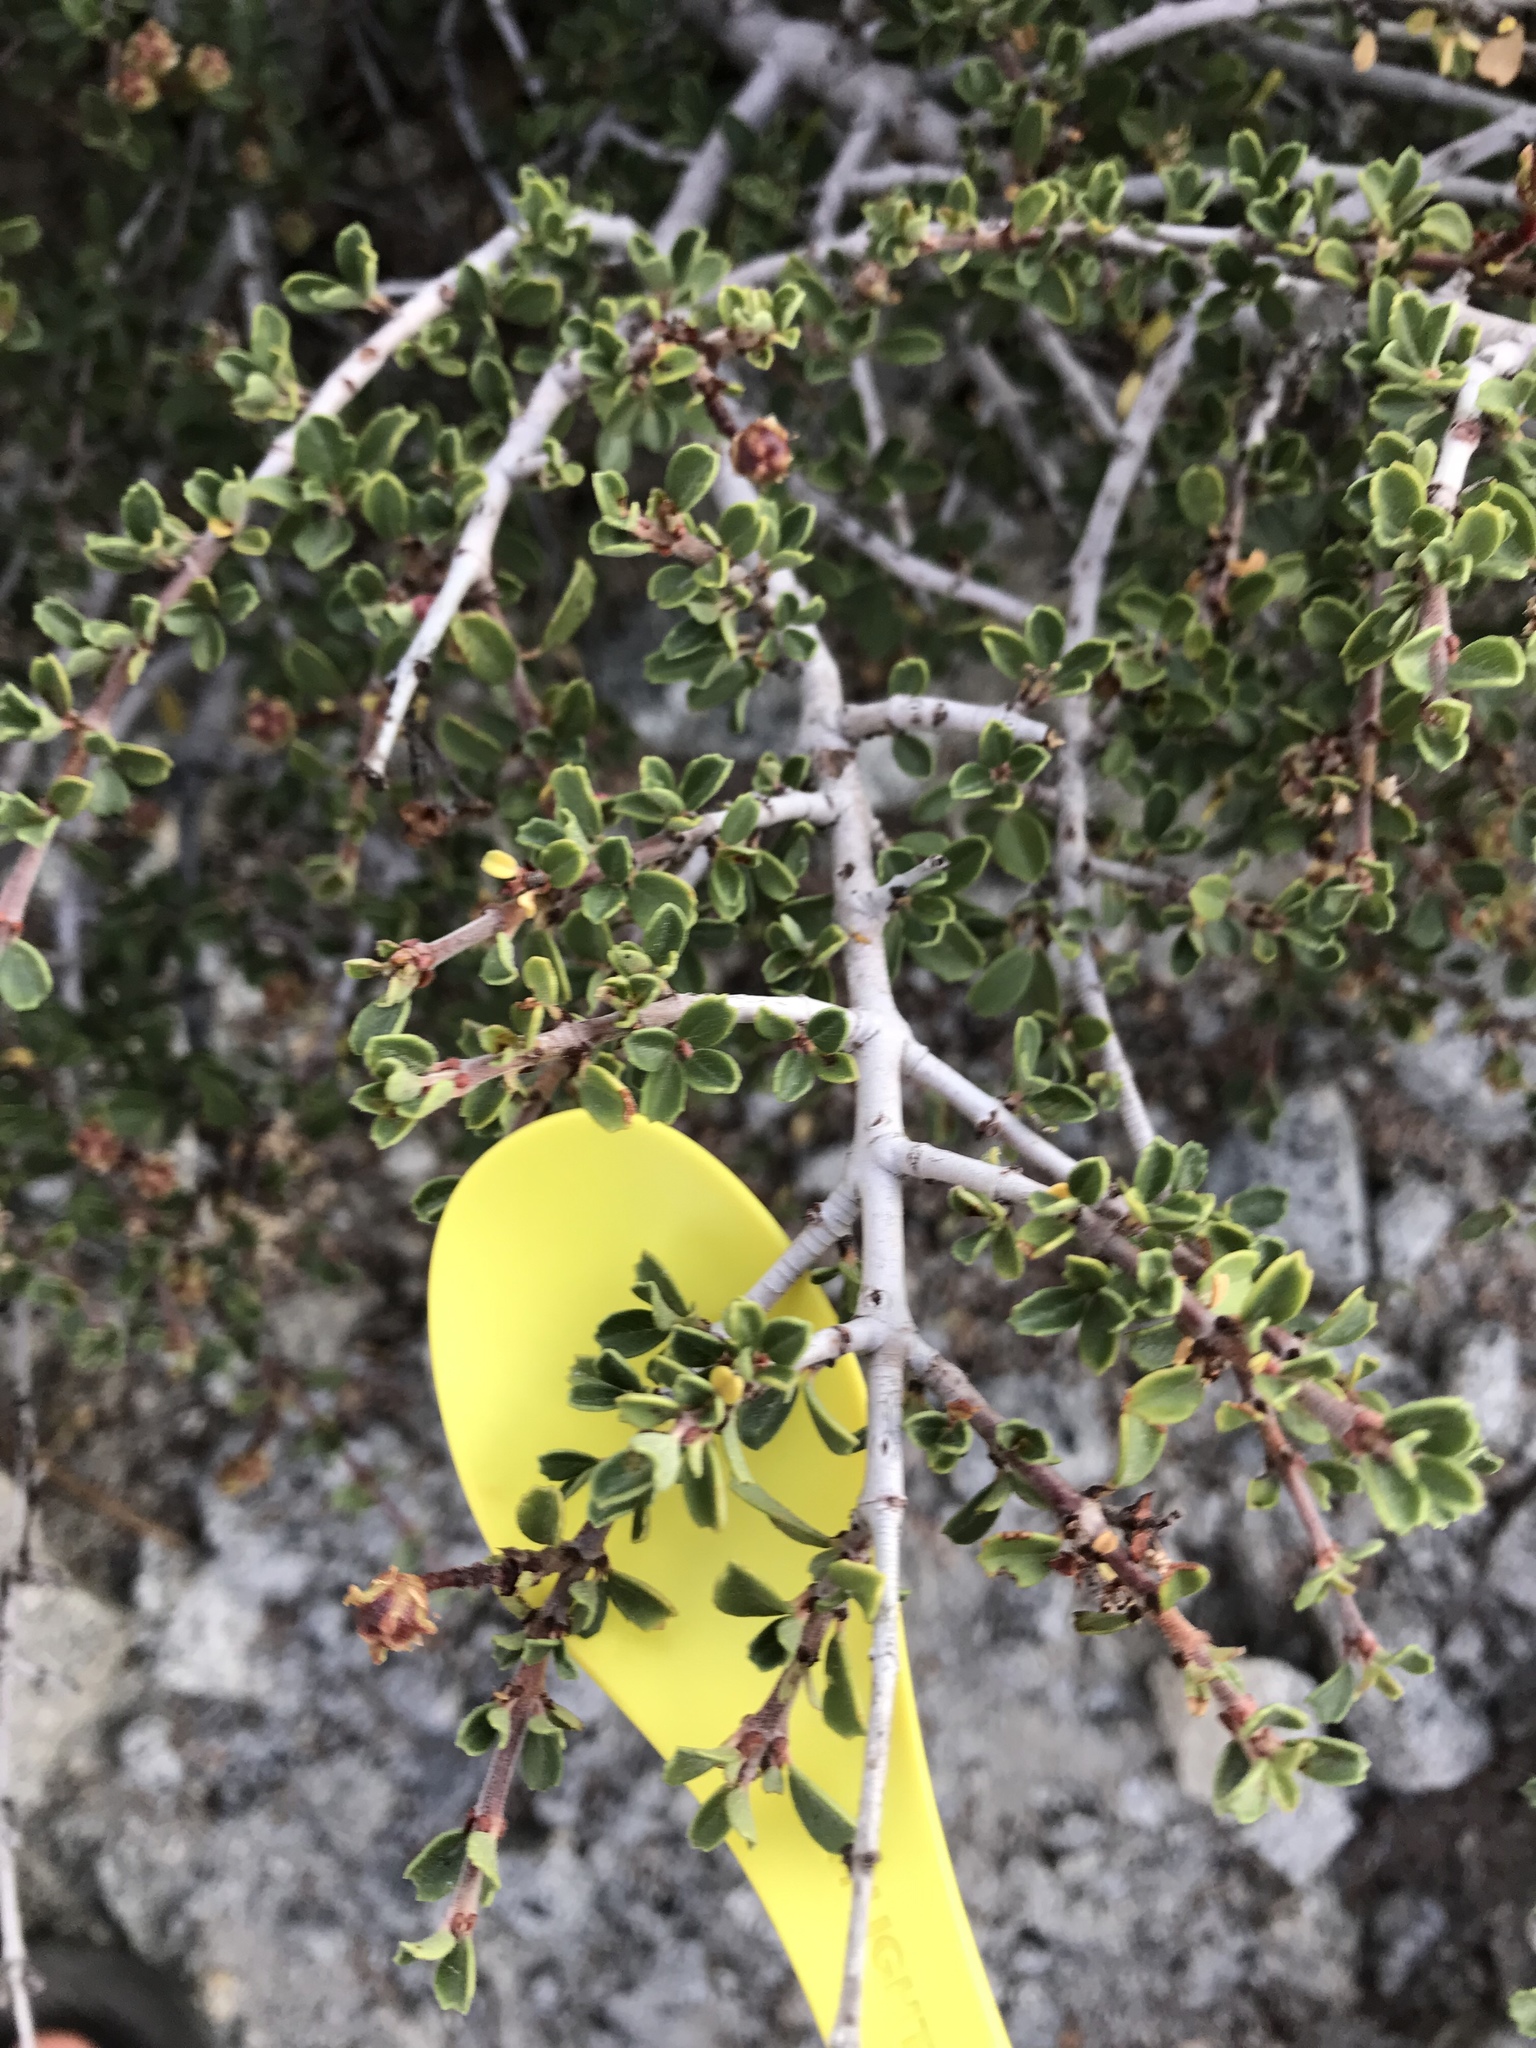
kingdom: Plantae
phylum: Tracheophyta
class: Magnoliopsida
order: Rosales
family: Rhamnaceae
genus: Ceanothus
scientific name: Ceanothus prostratus
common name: Mahala-mat
